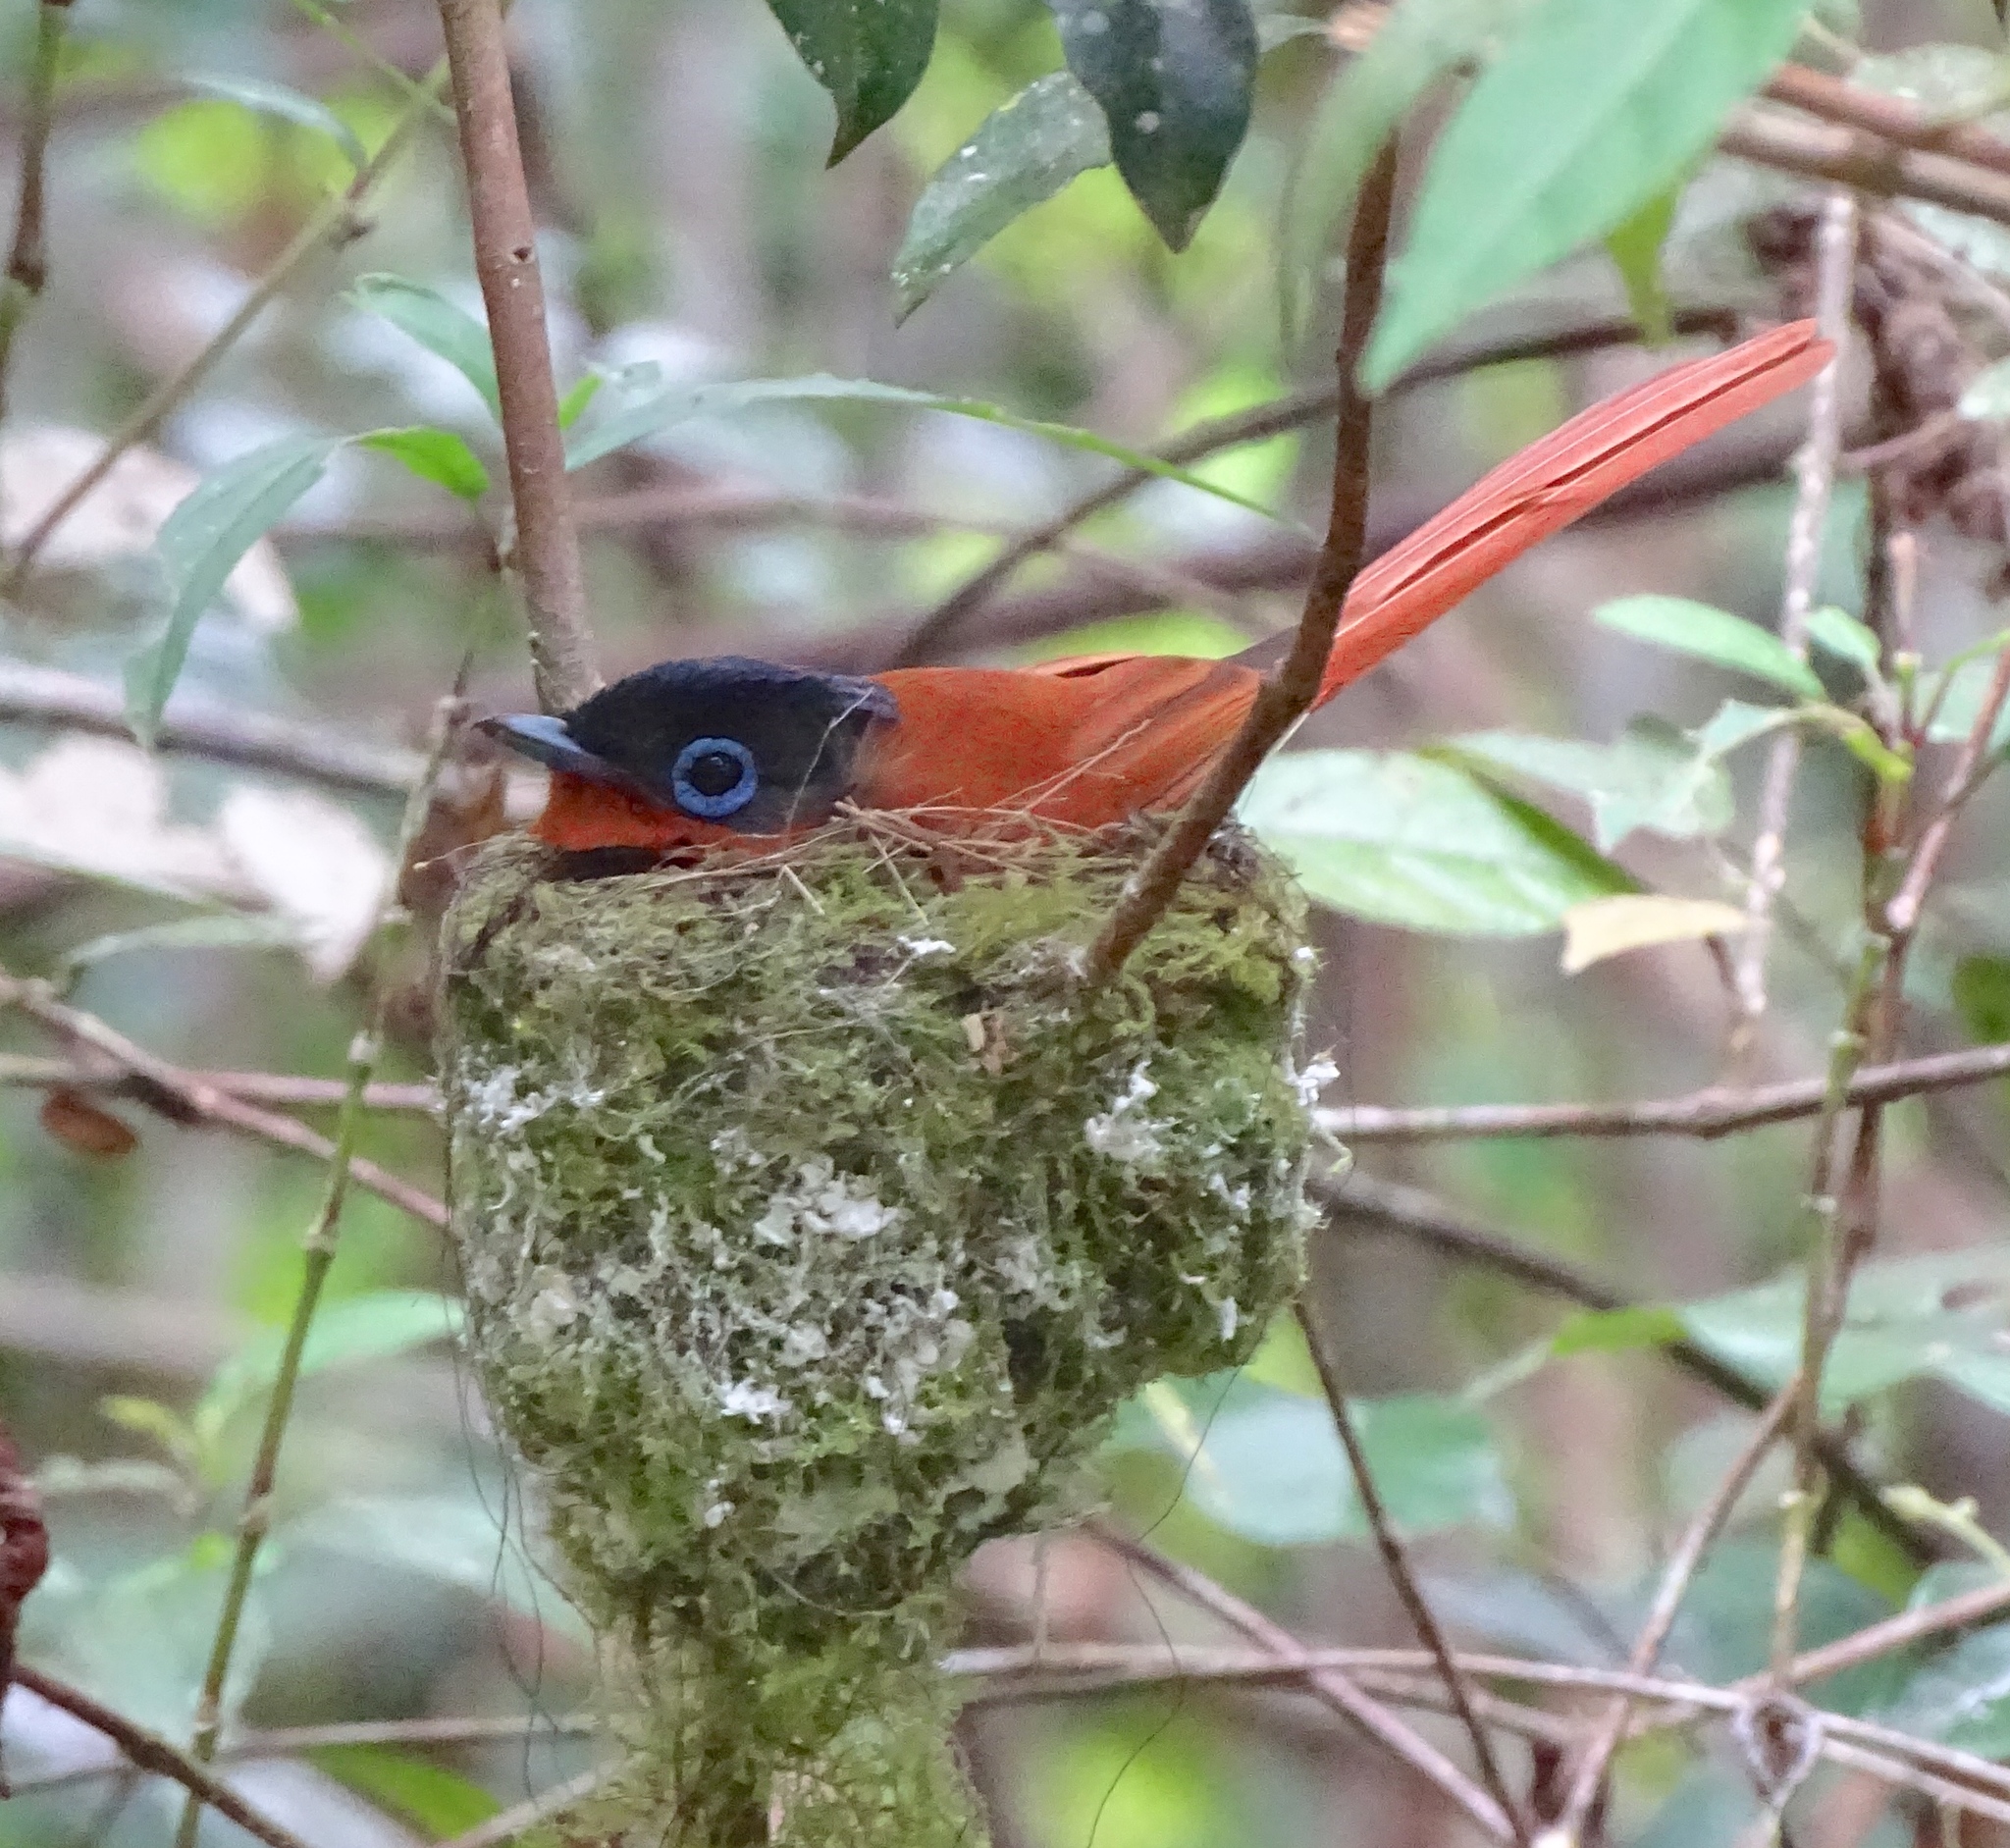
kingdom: Animalia
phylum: Chordata
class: Aves
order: Passeriformes
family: Monarchidae
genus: Terpsiphone
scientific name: Terpsiphone mutata
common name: Malagasy paradise flycatcher
